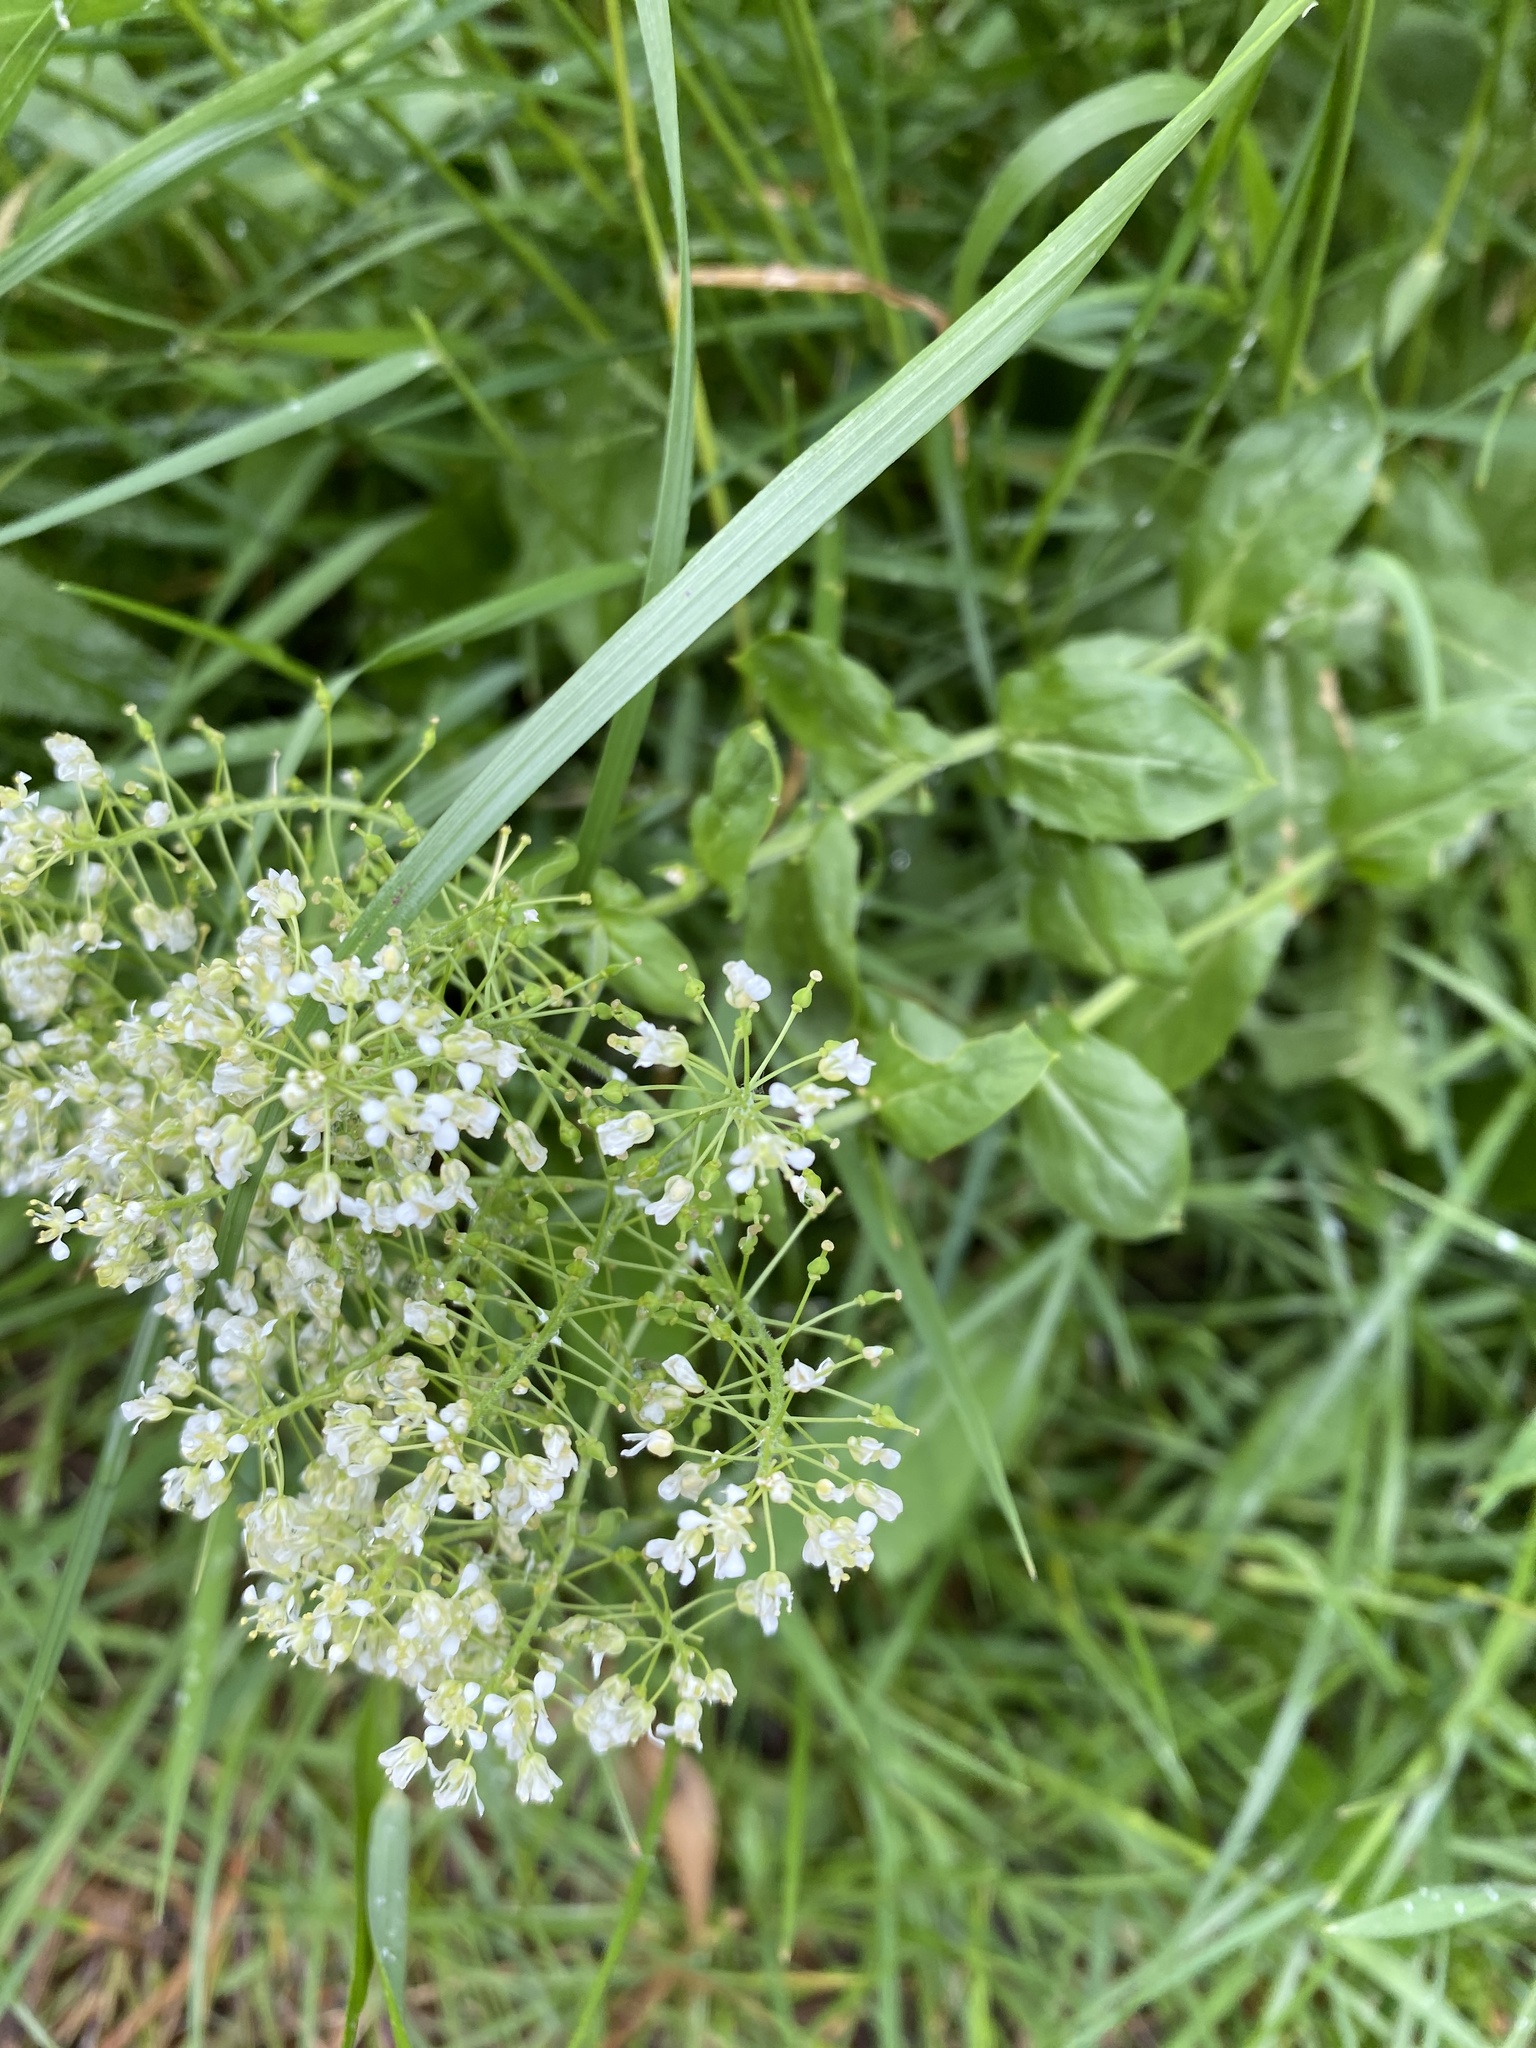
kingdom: Plantae
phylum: Tracheophyta
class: Magnoliopsida
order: Brassicales
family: Brassicaceae
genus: Lepidium
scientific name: Lepidium draba
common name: Hoary cress
